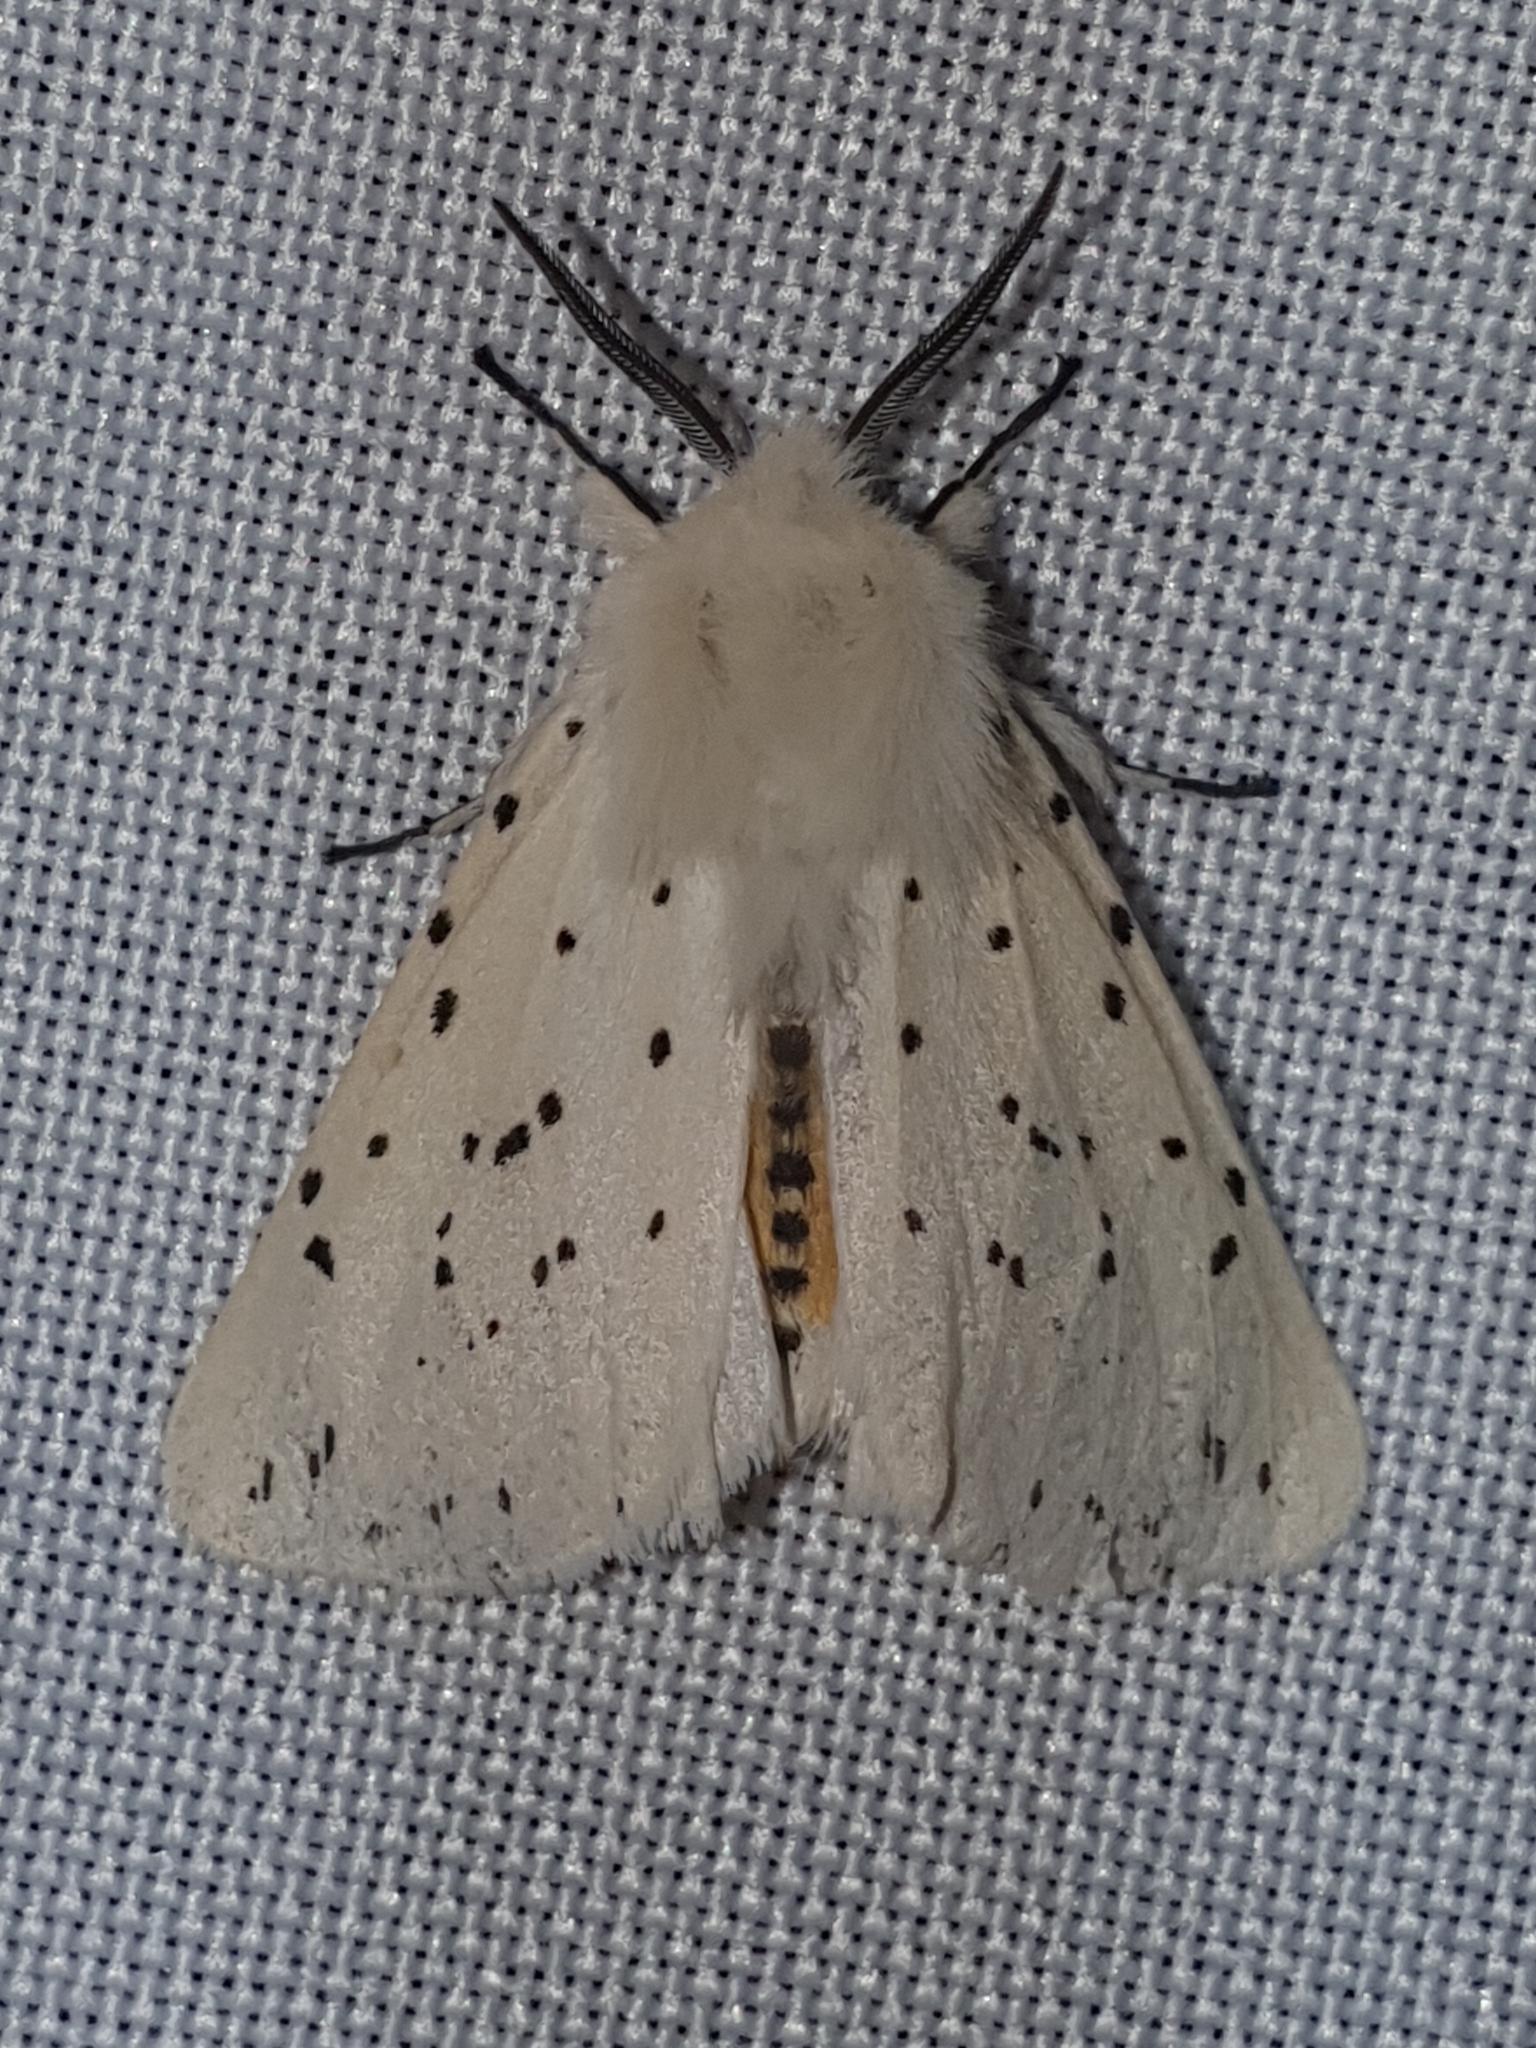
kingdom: Animalia
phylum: Arthropoda
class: Insecta
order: Lepidoptera
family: Erebidae
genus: Spilosoma
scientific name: Spilosoma lubricipeda
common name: White ermine
